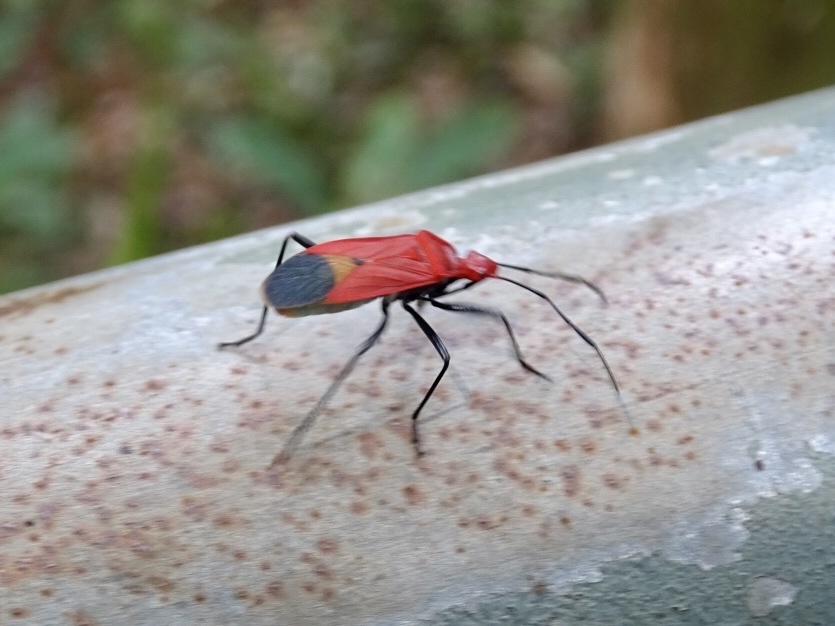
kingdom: Animalia
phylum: Arthropoda
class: Insecta
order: Hemiptera
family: Pyrrhocoridae
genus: Dindymus
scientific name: Dindymus
